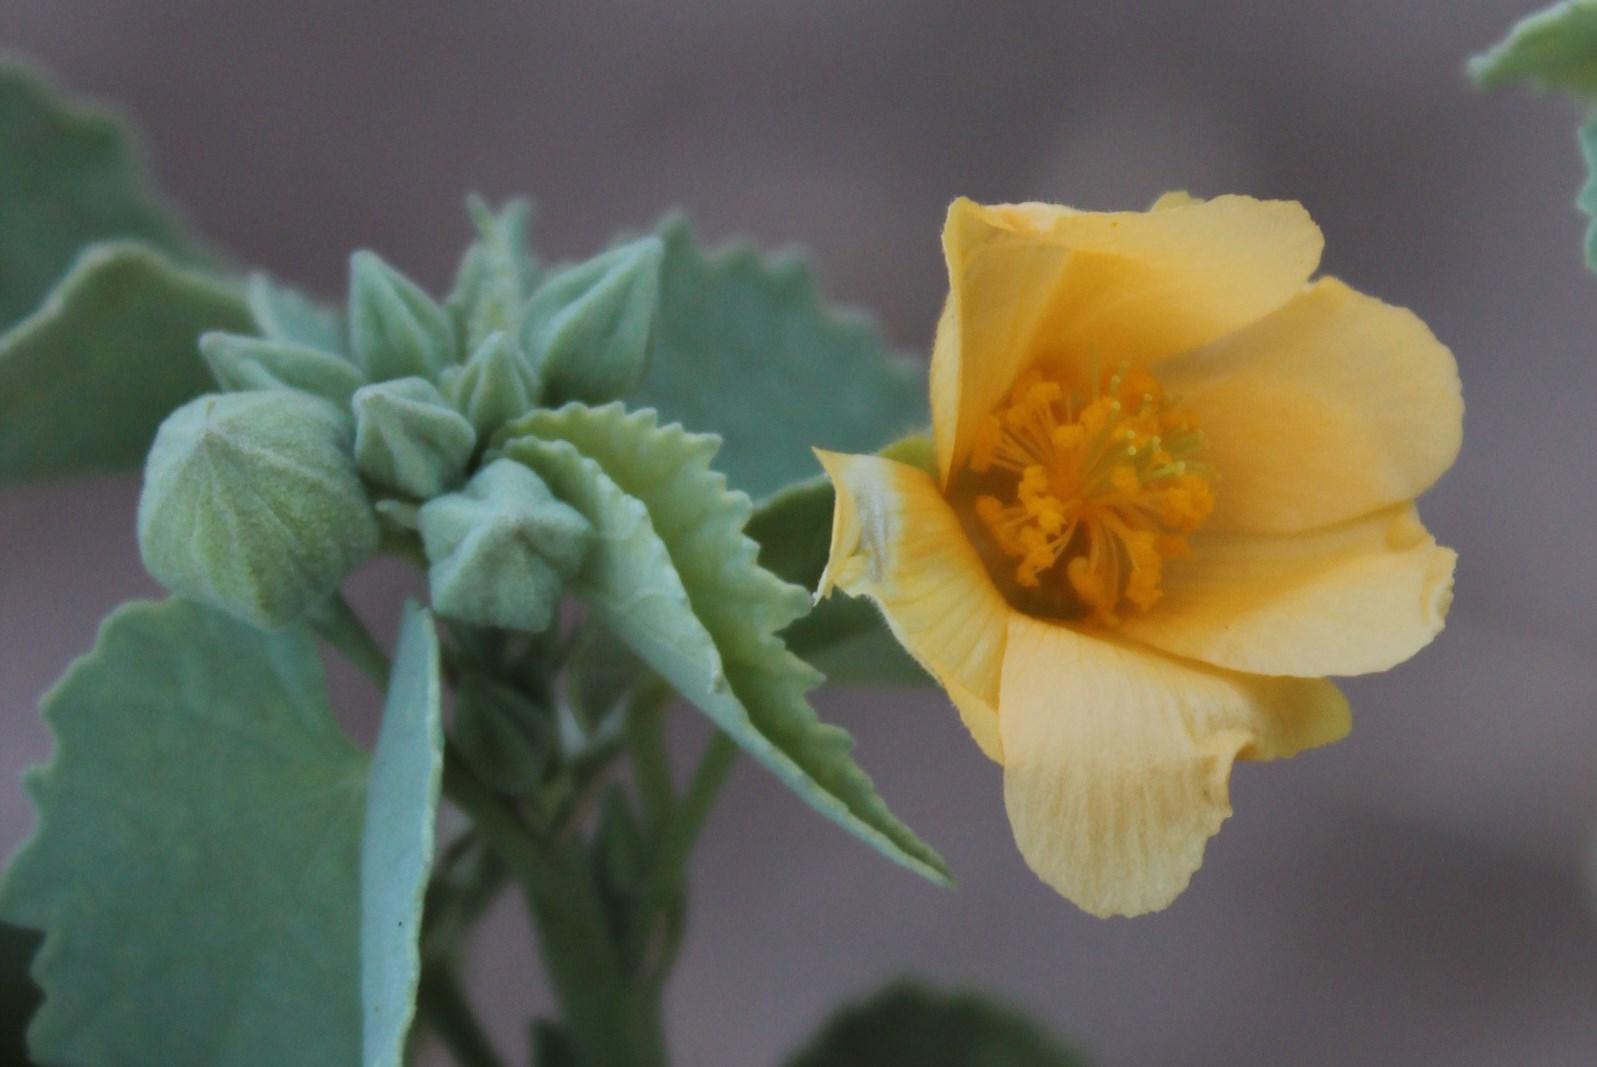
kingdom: Plantae
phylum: Tracheophyta
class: Magnoliopsida
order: Malvales
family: Malvaceae
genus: Abutilon
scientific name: Abutilon pycnodon
